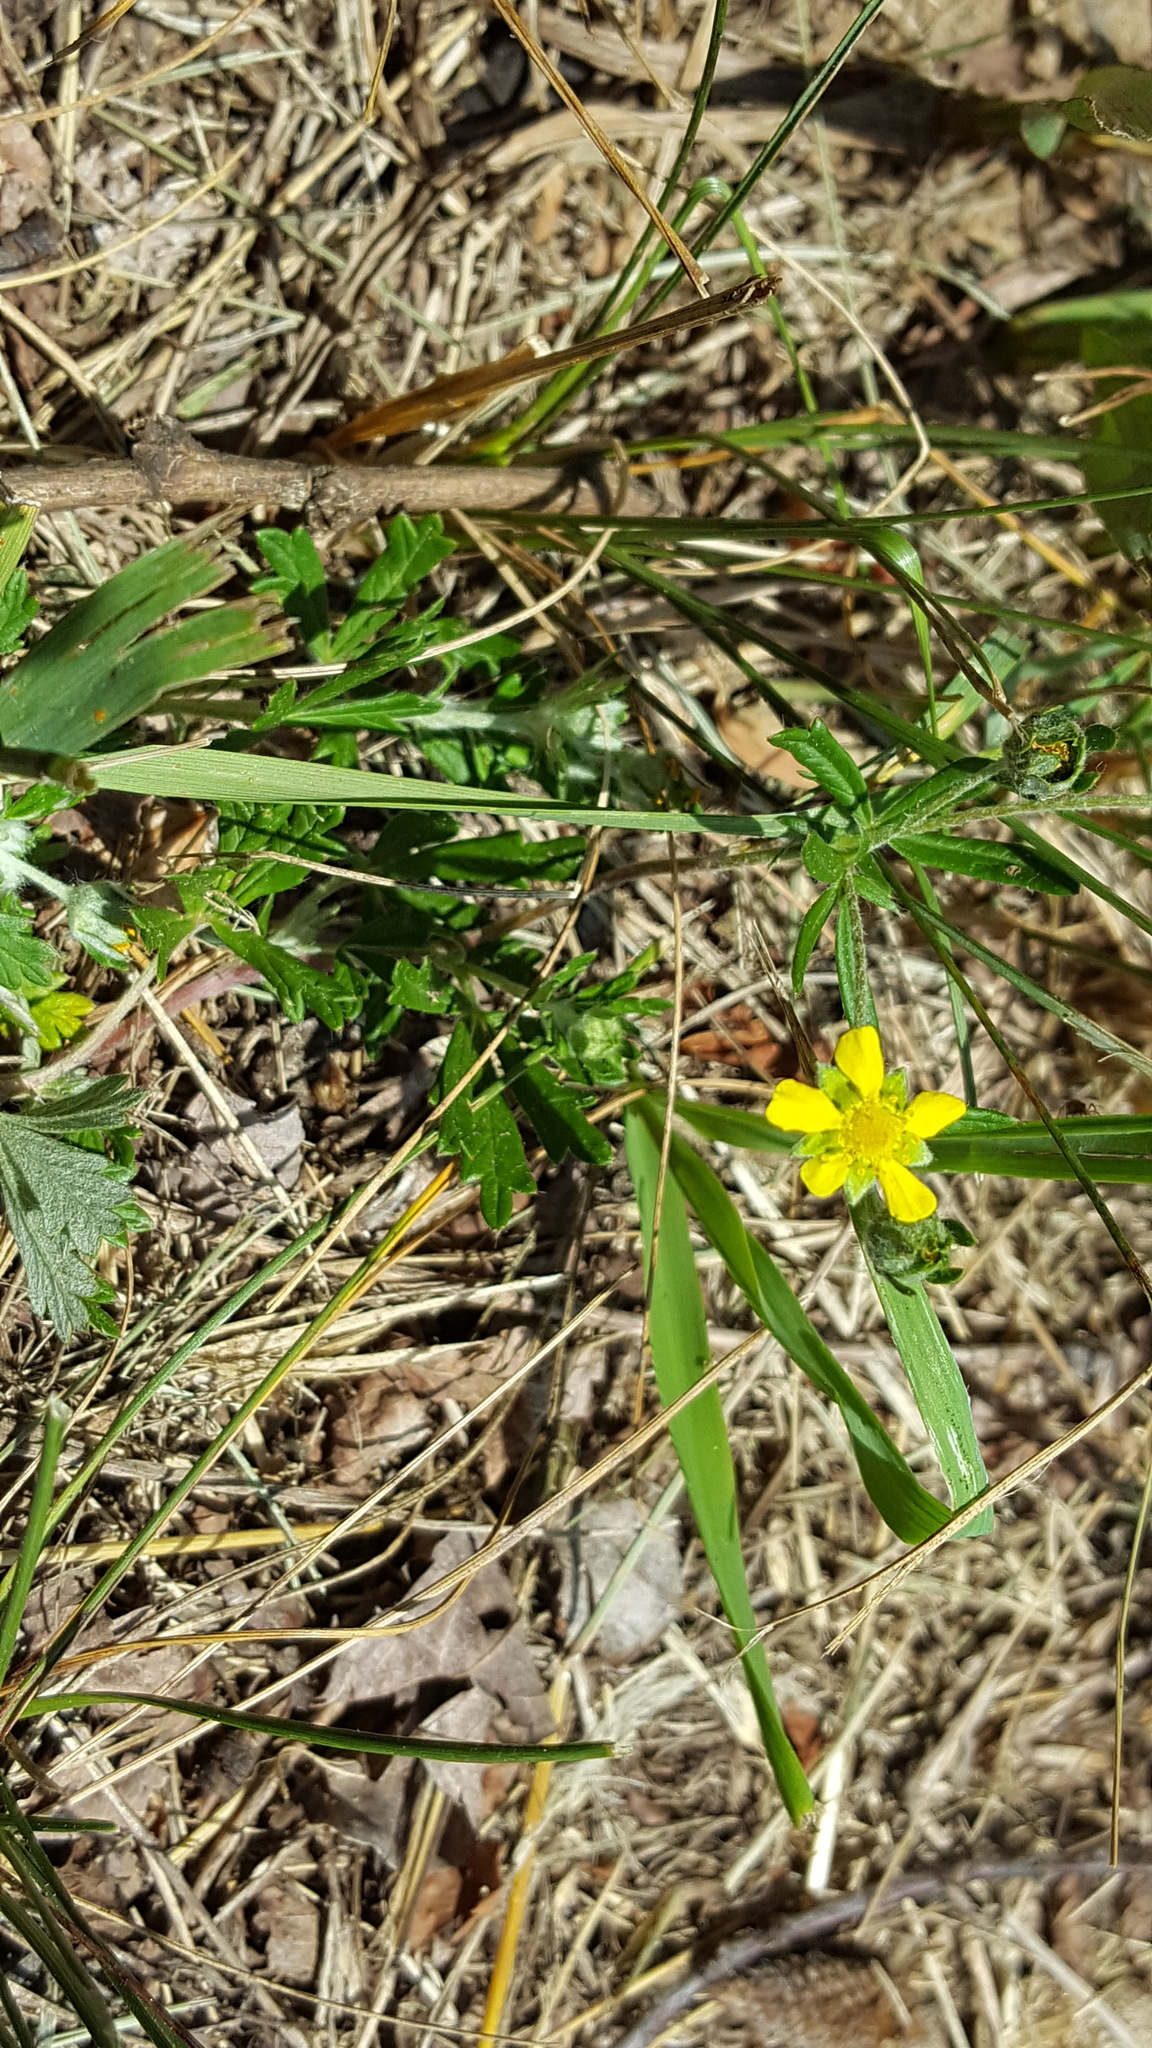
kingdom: Plantae
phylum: Tracheophyta
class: Magnoliopsida
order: Rosales
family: Rosaceae
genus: Potentilla
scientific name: Potentilla argentea
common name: Hoary cinquefoil
